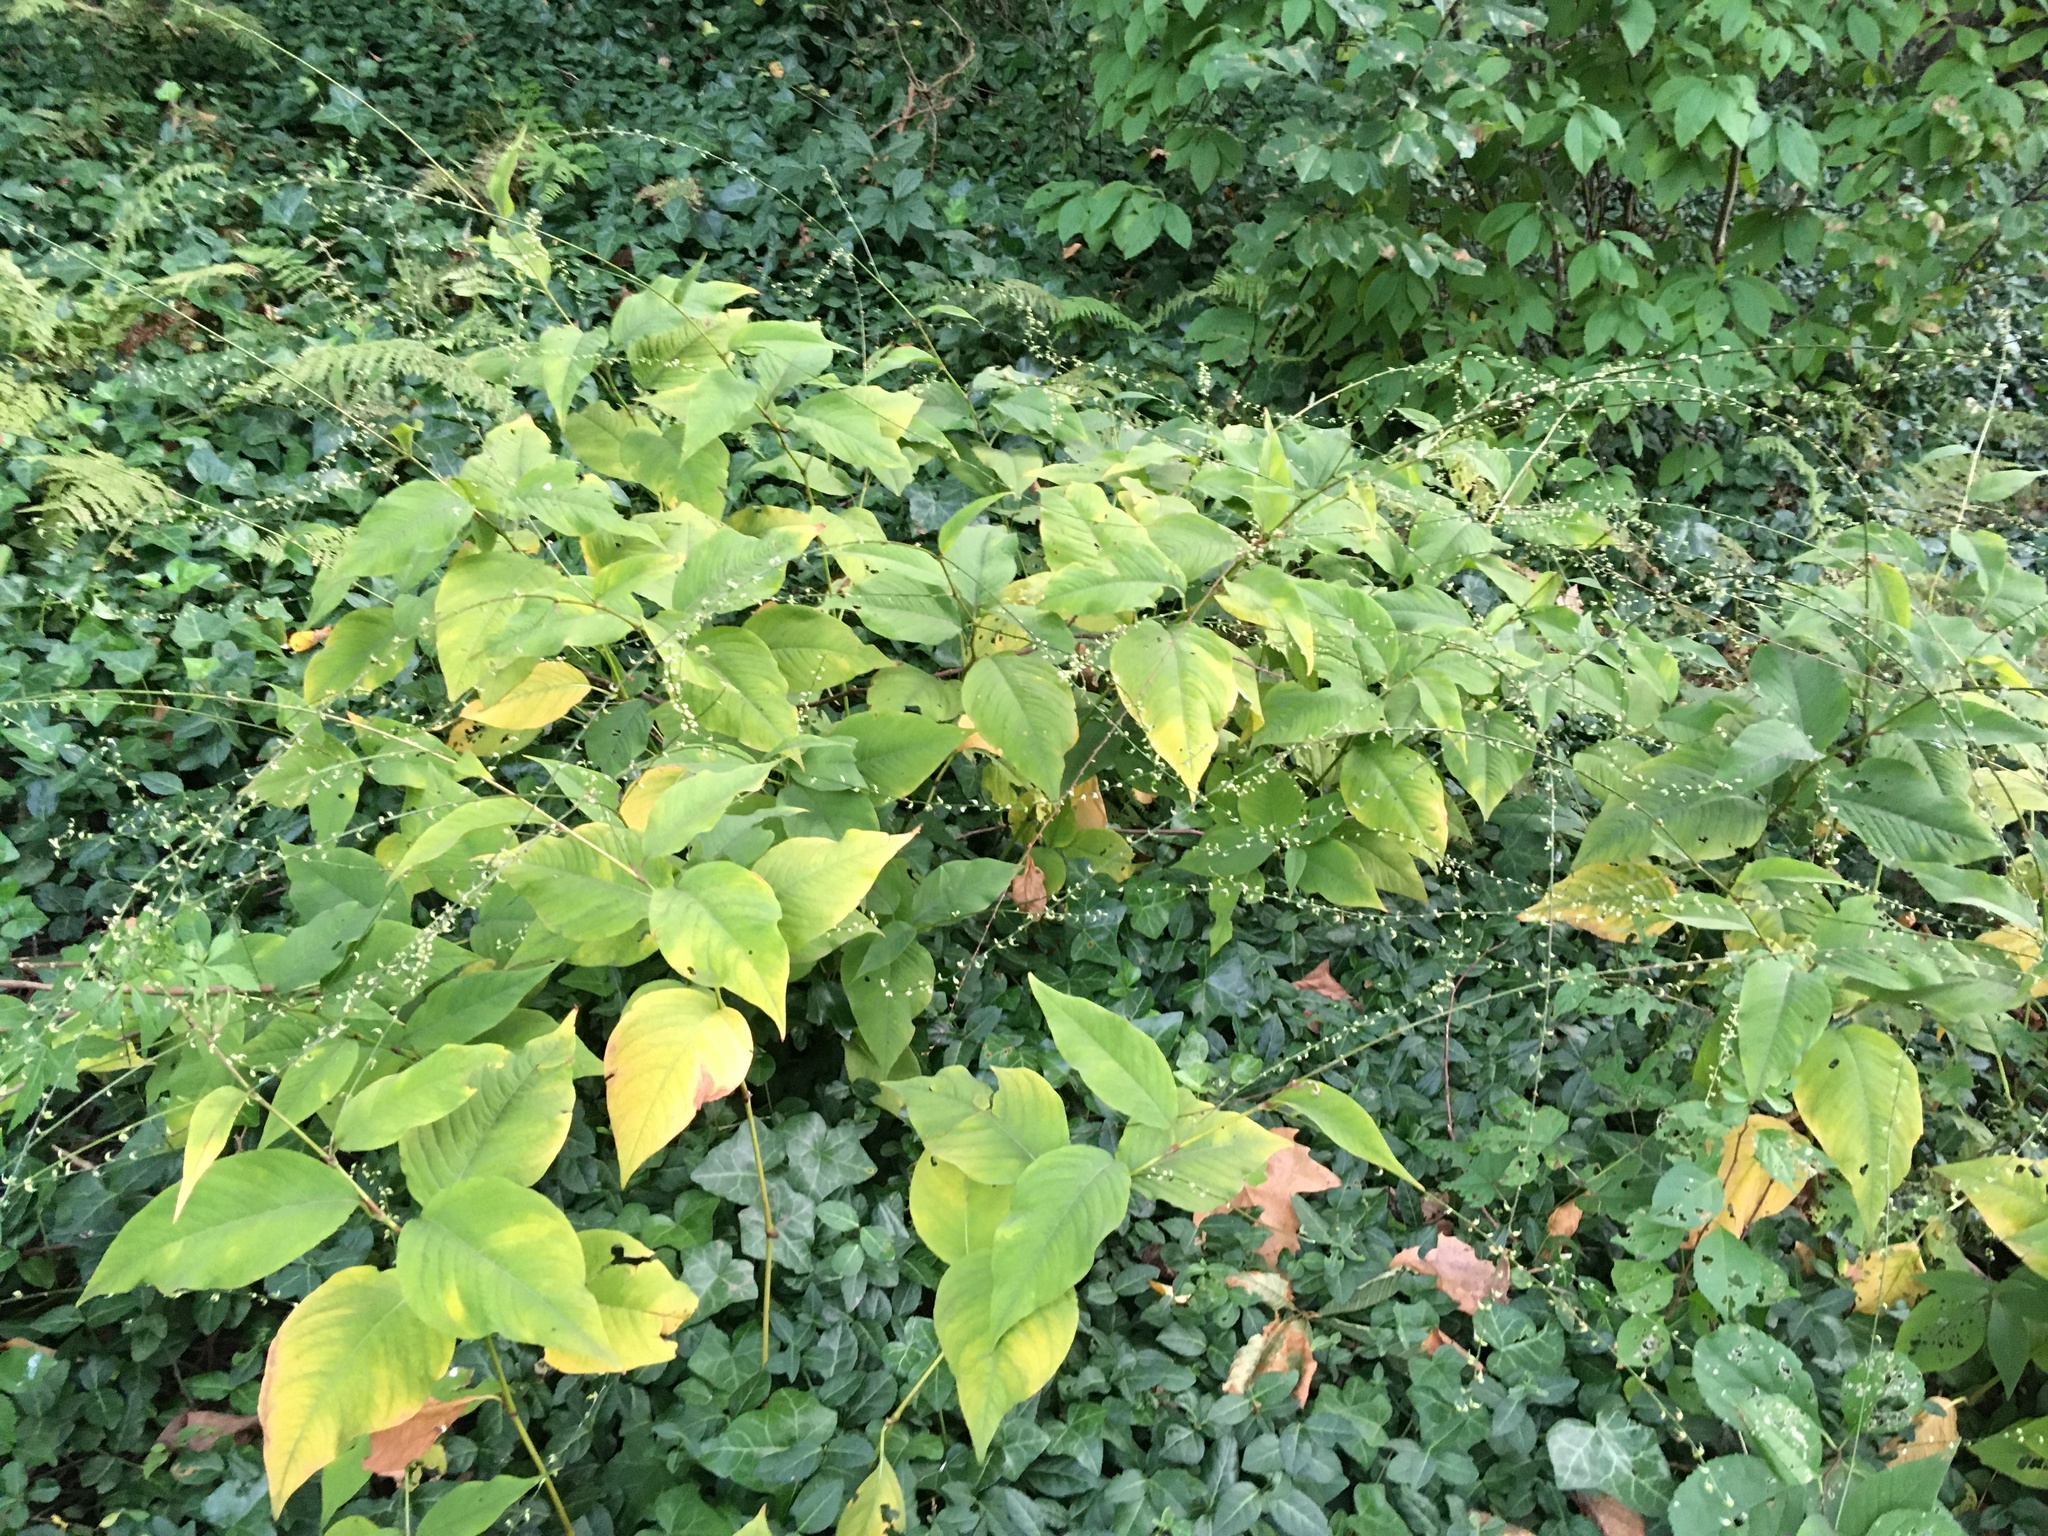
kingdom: Plantae
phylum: Tracheophyta
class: Magnoliopsida
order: Caryophyllales
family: Polygonaceae
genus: Persicaria
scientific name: Persicaria virginiana
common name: Jumpseed
